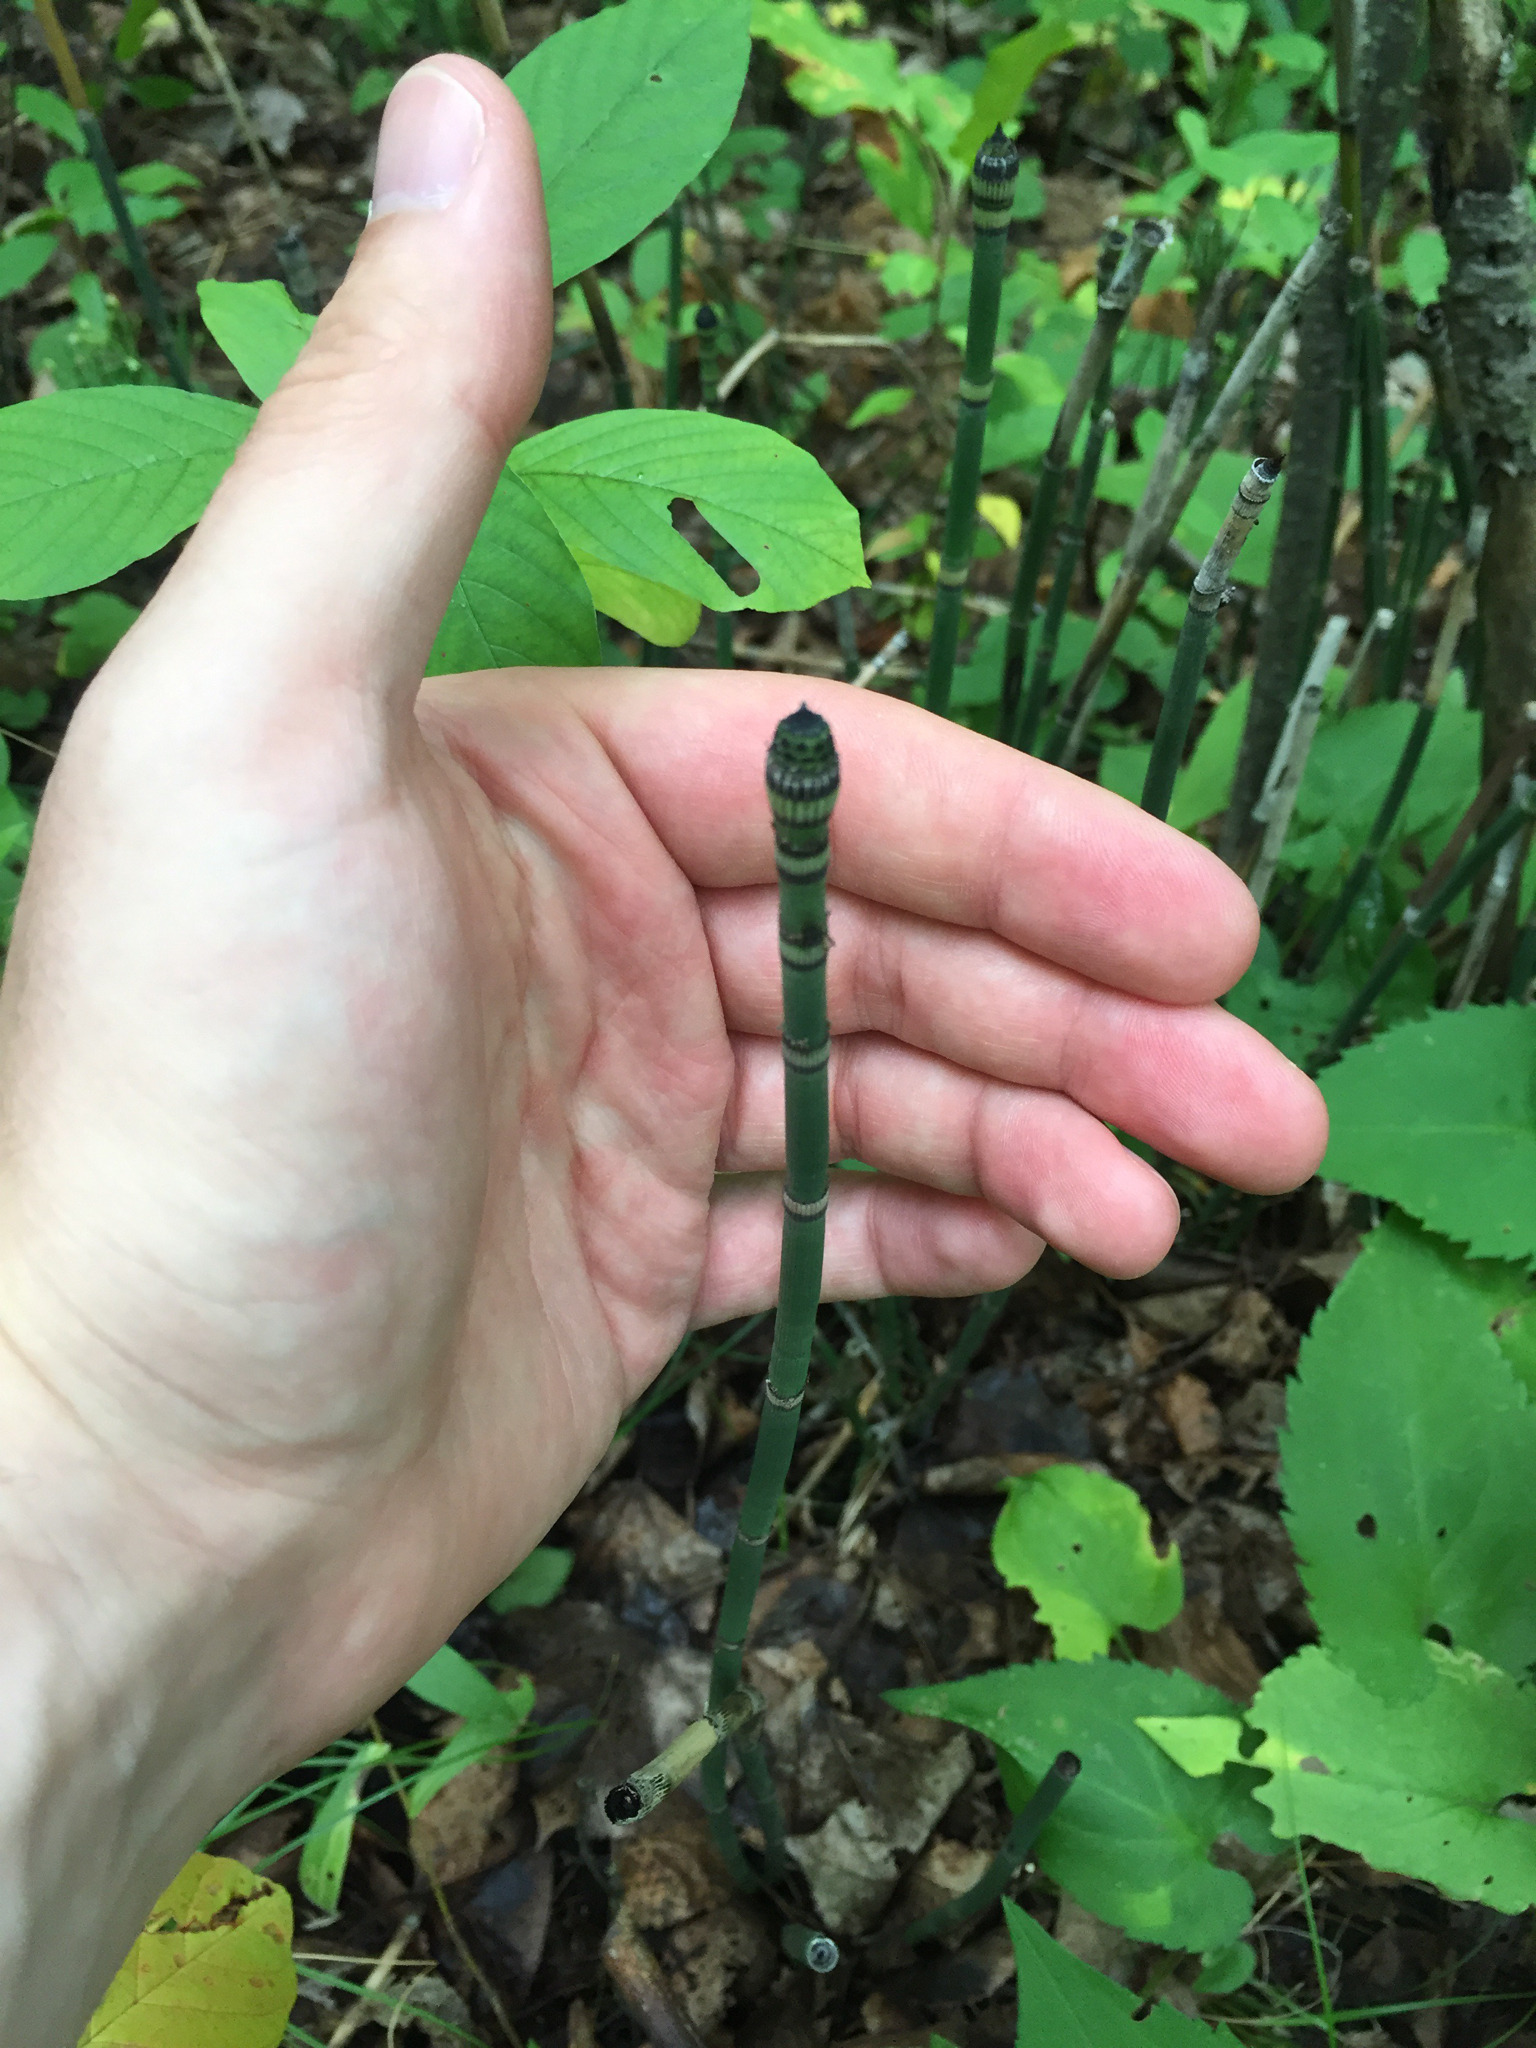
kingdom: Plantae
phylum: Tracheophyta
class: Polypodiopsida
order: Equisetales
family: Equisetaceae
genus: Equisetum
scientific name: Equisetum praealtum
